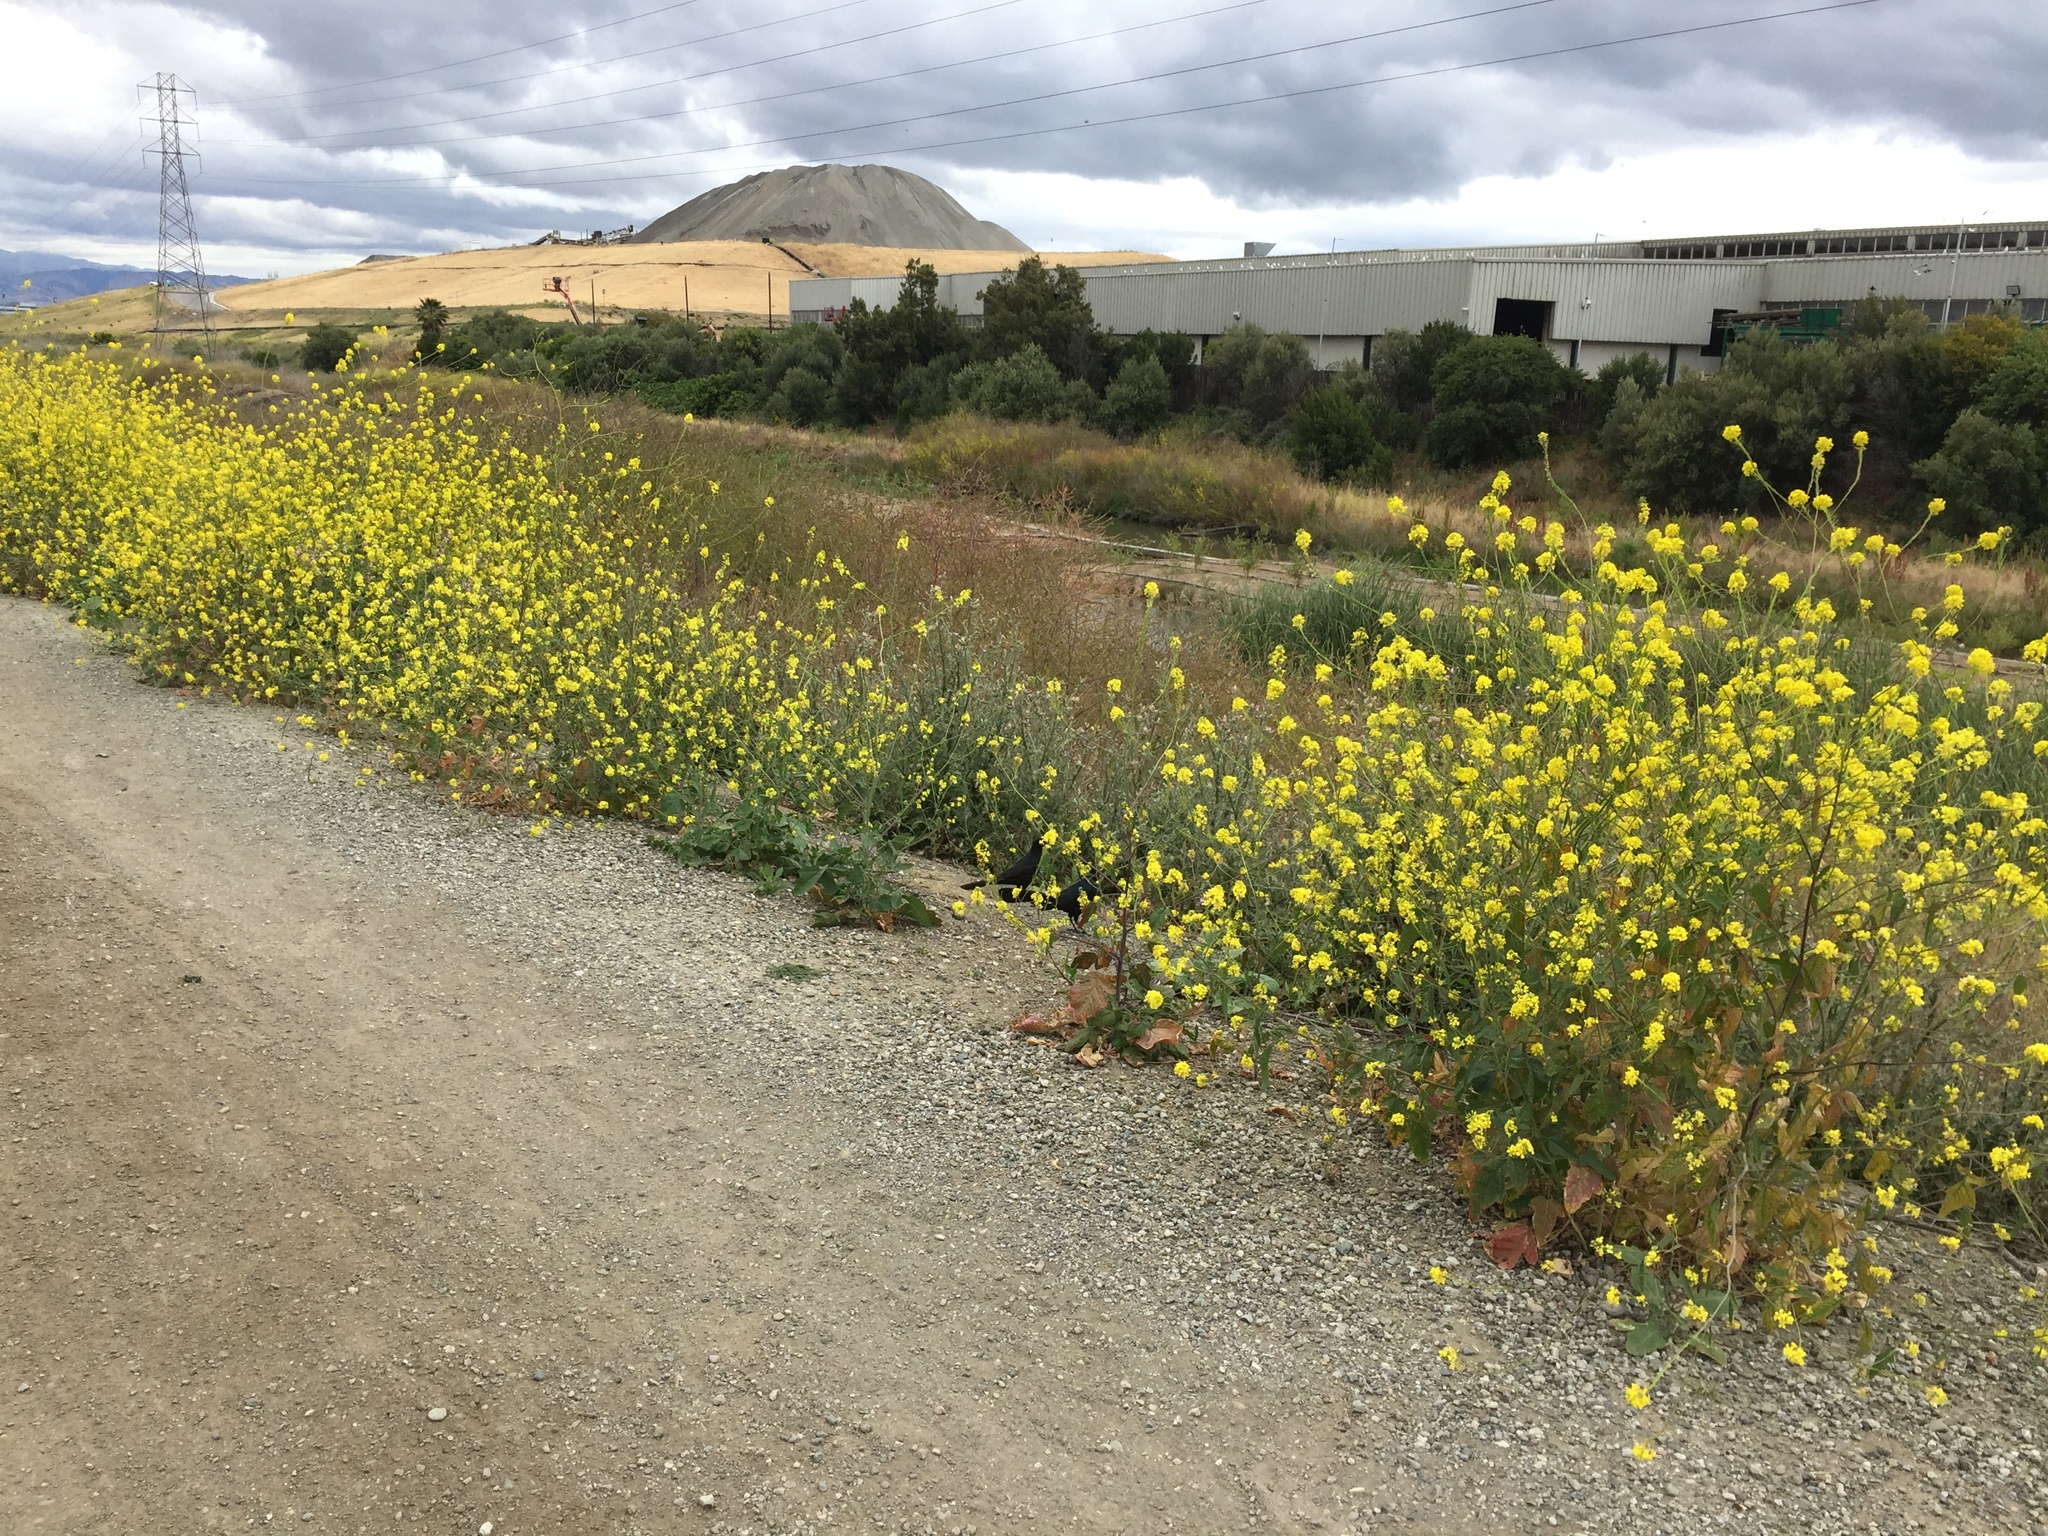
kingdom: Animalia
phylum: Chordata
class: Aves
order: Passeriformes
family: Icteridae
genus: Quiscalus
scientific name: Quiscalus mexicanus
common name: Great-tailed grackle
